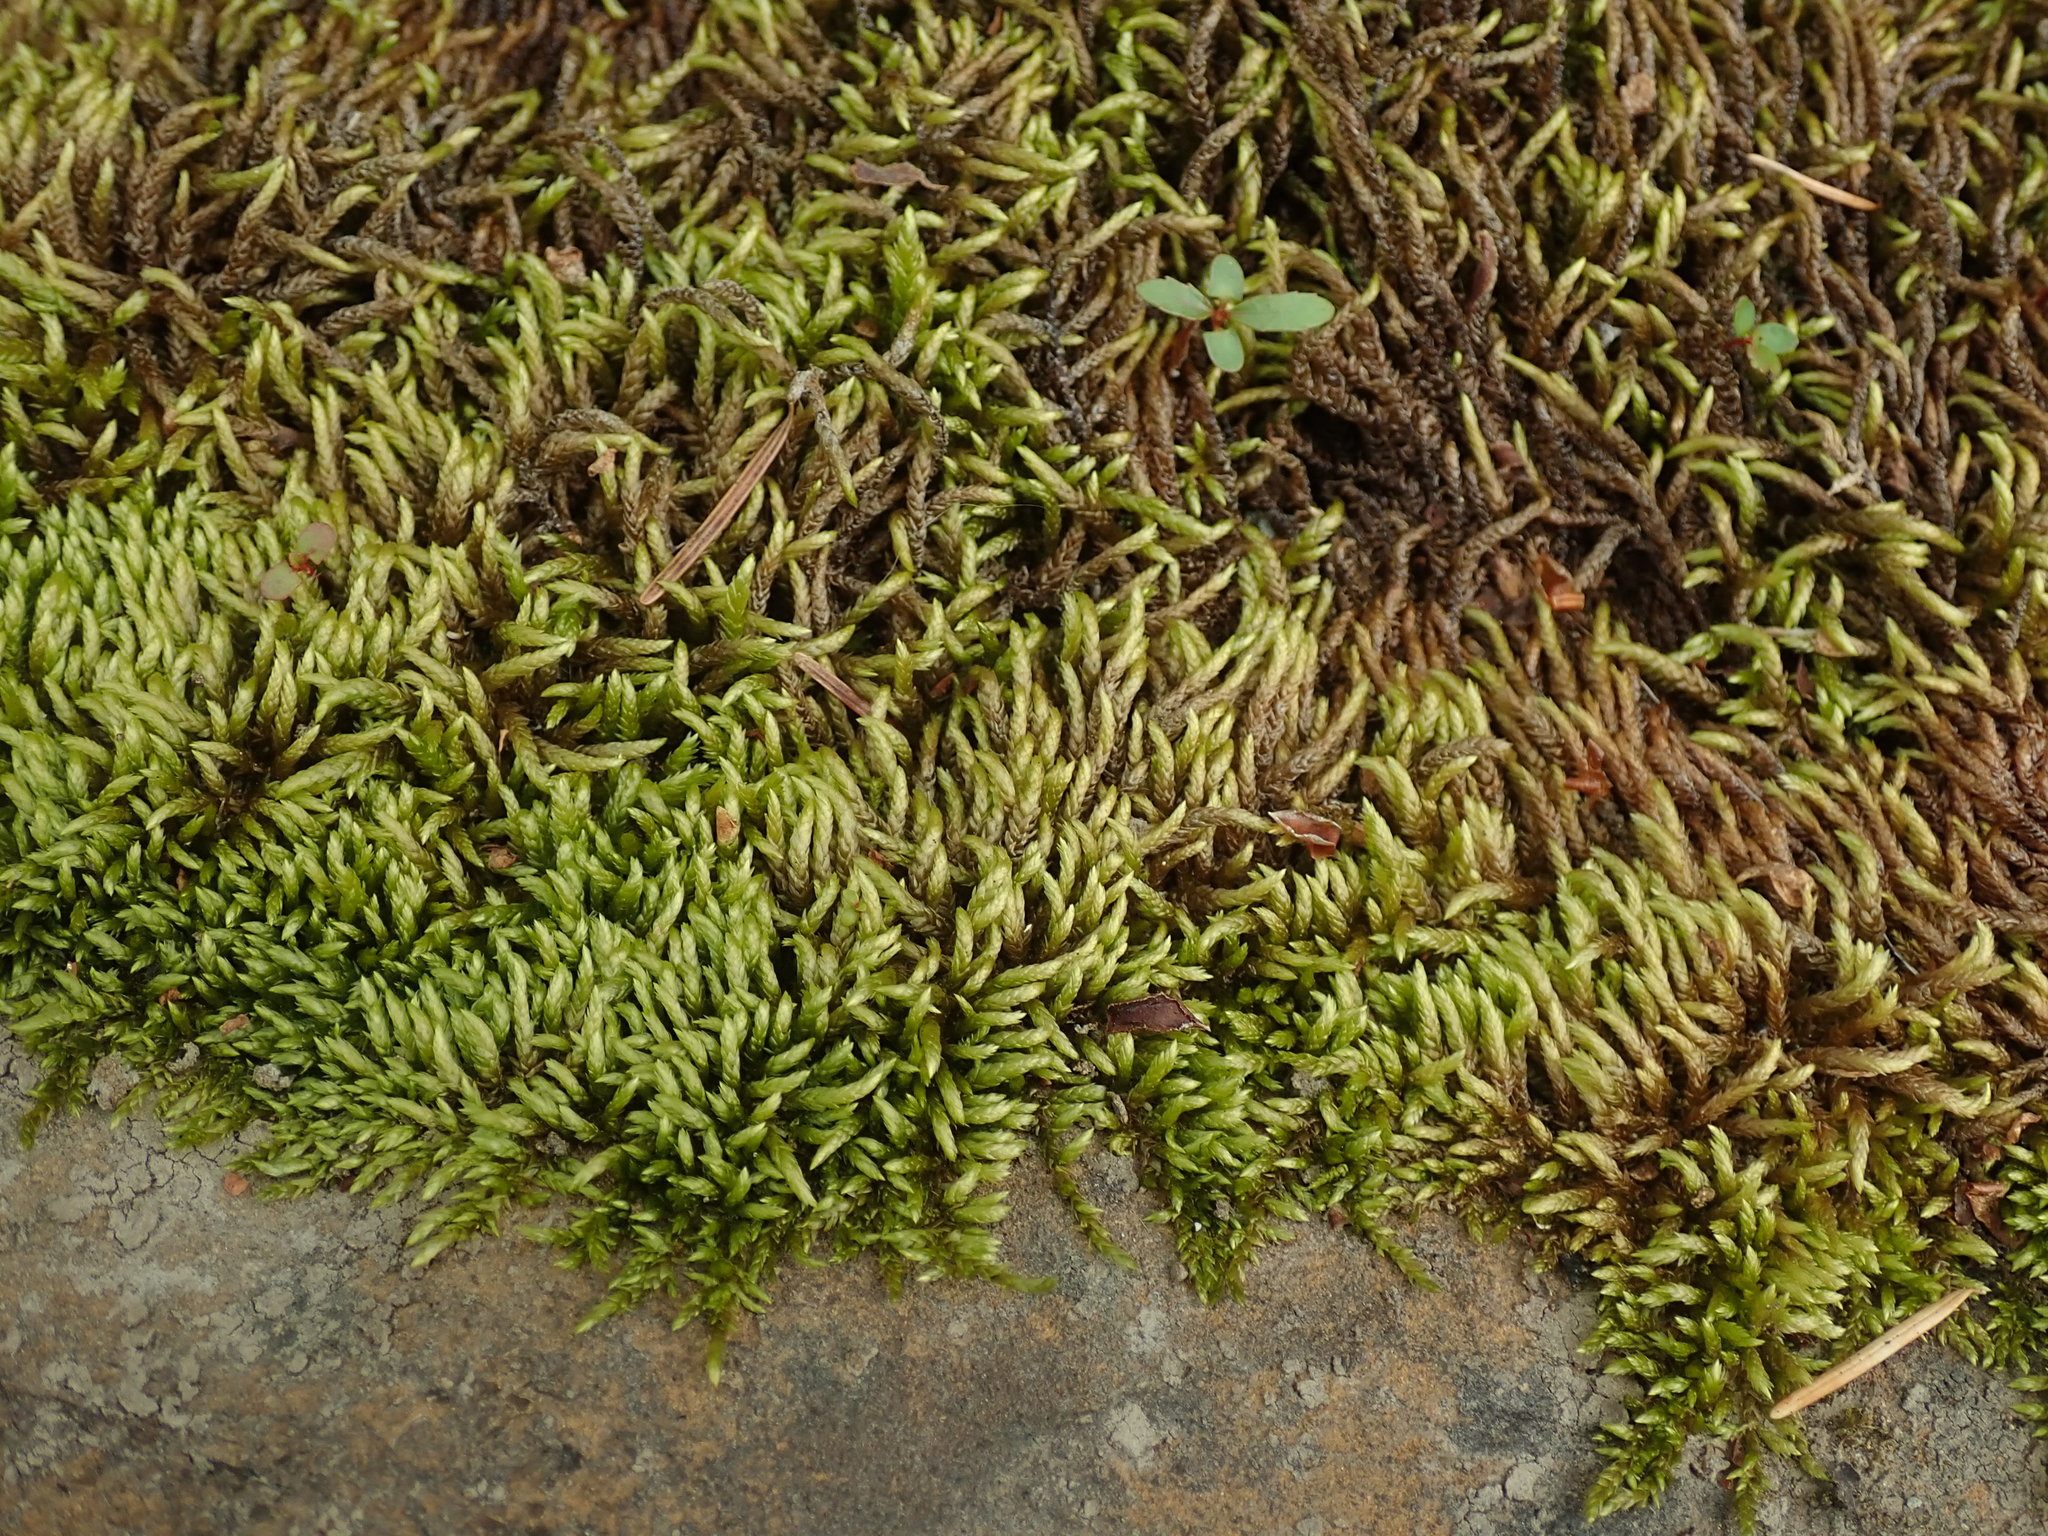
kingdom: Plantae
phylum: Bryophyta
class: Bryopsida
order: Hypnales
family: Brachytheciaceae
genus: Scleropodium
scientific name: Scleropodium obtusifolium
